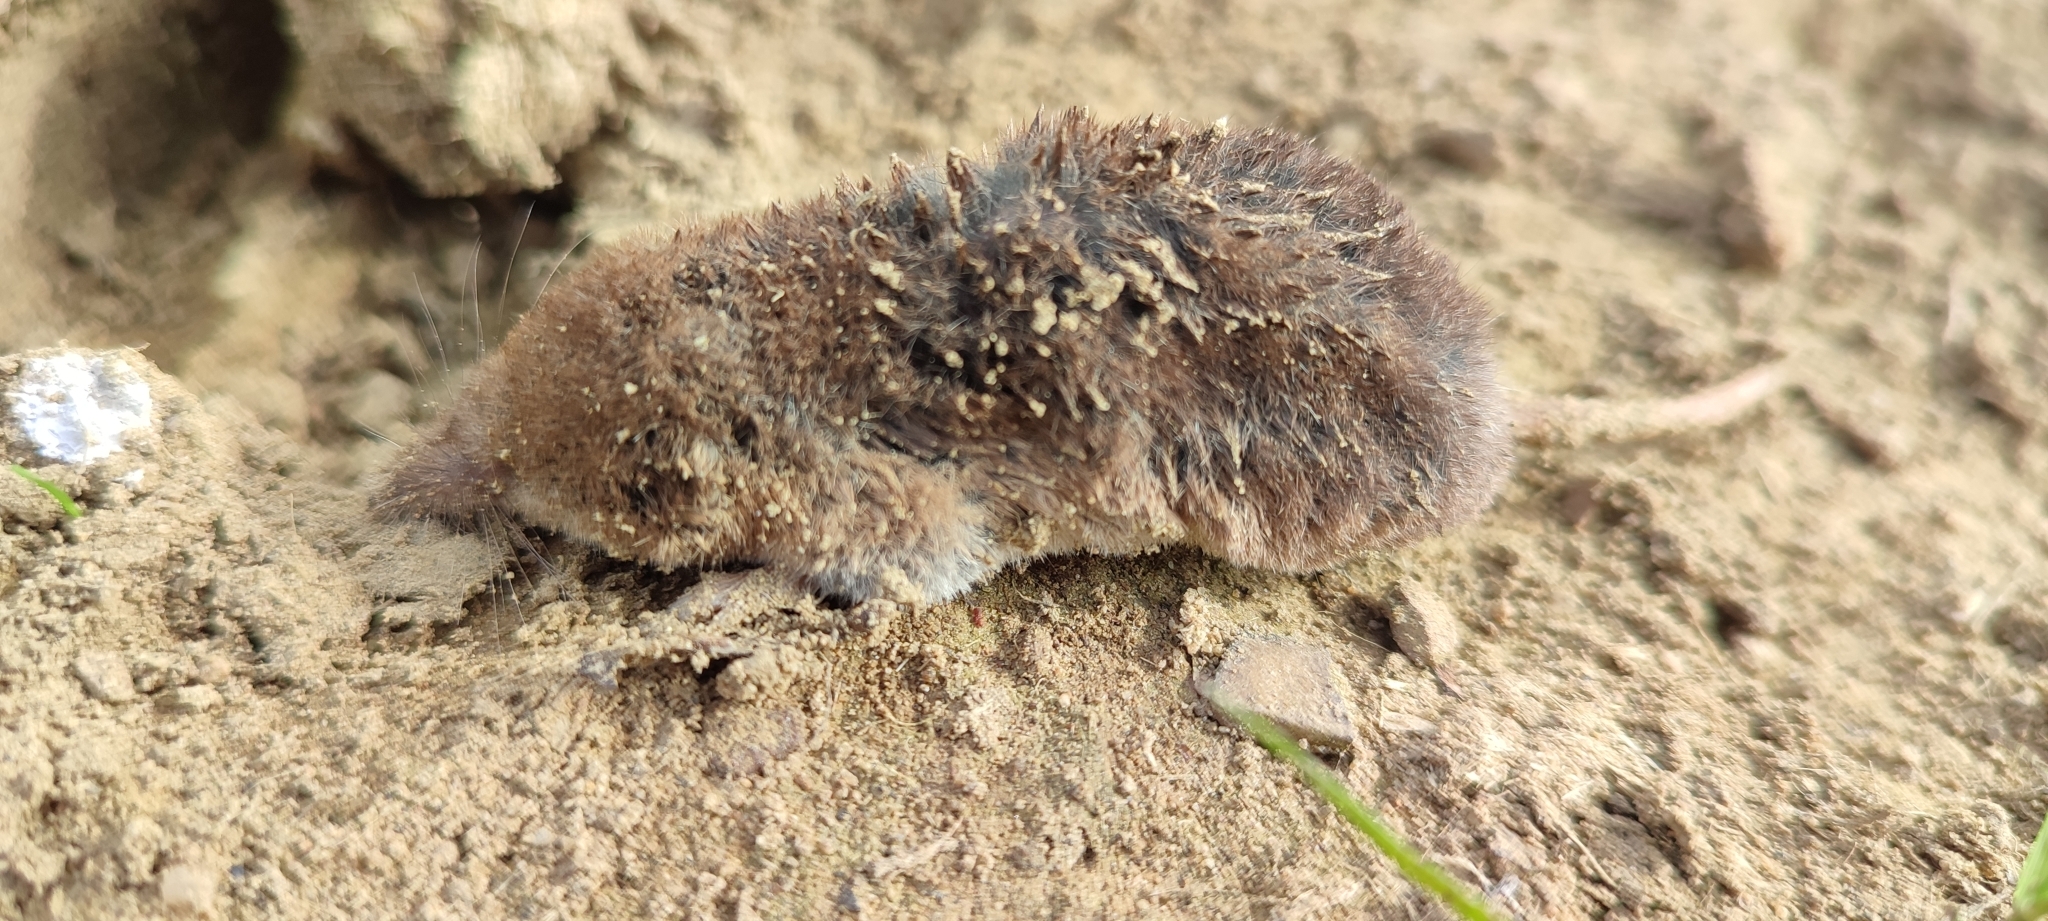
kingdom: Animalia
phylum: Chordata
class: Mammalia
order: Soricomorpha
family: Soricidae
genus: Sorex
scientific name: Sorex araneus
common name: Common shrew
